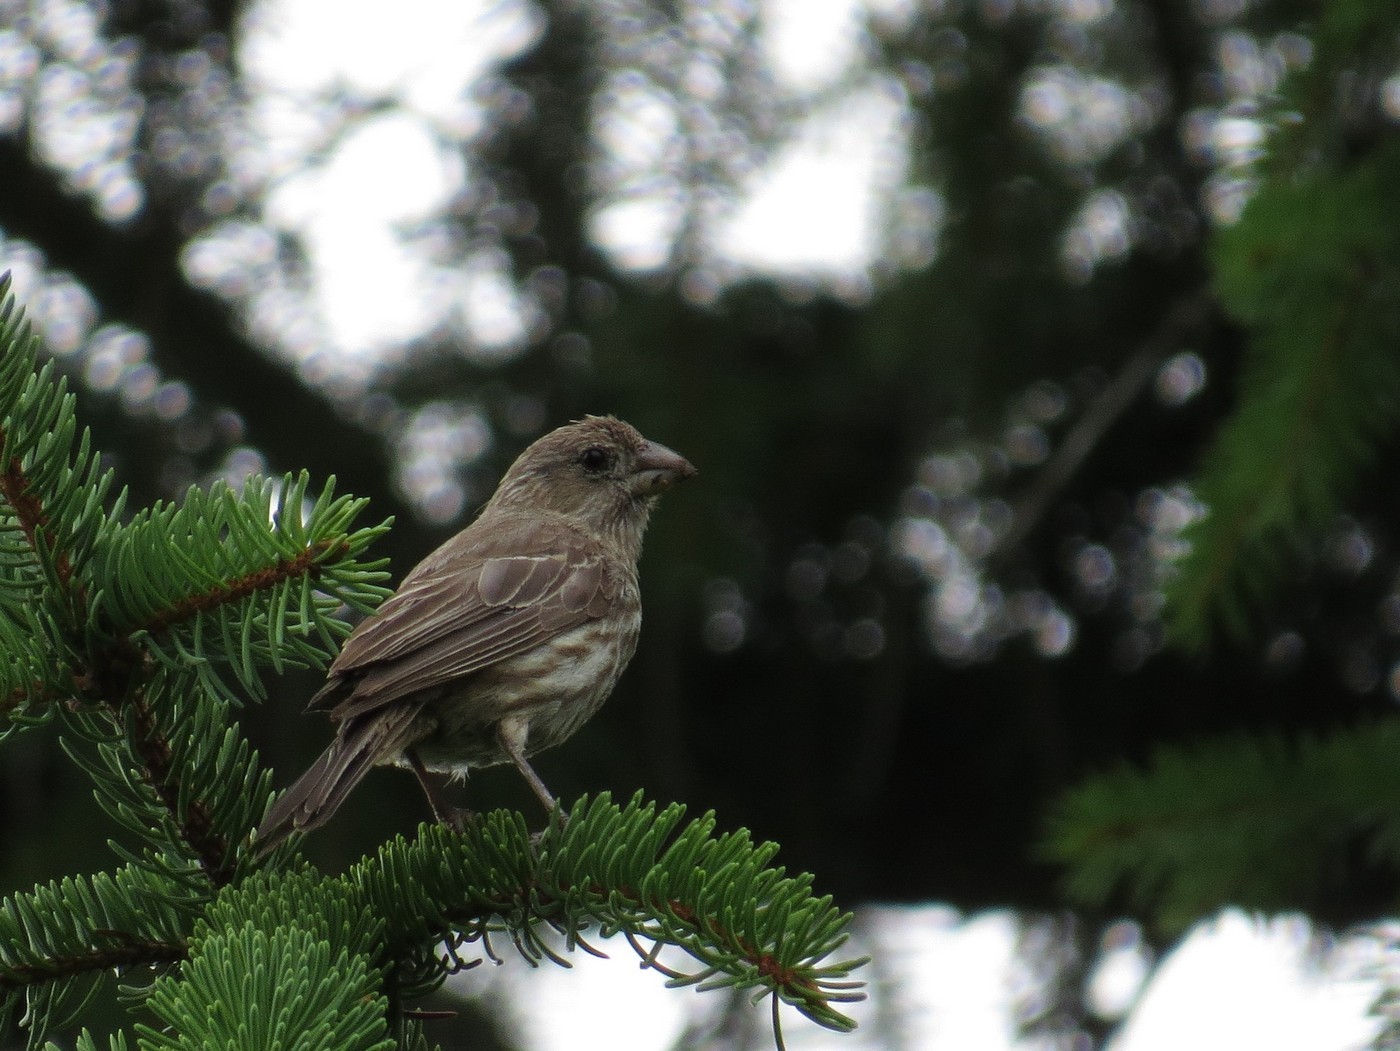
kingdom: Animalia
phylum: Chordata
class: Aves
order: Passeriformes
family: Fringillidae
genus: Haemorhous
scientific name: Haemorhous mexicanus
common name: House finch
